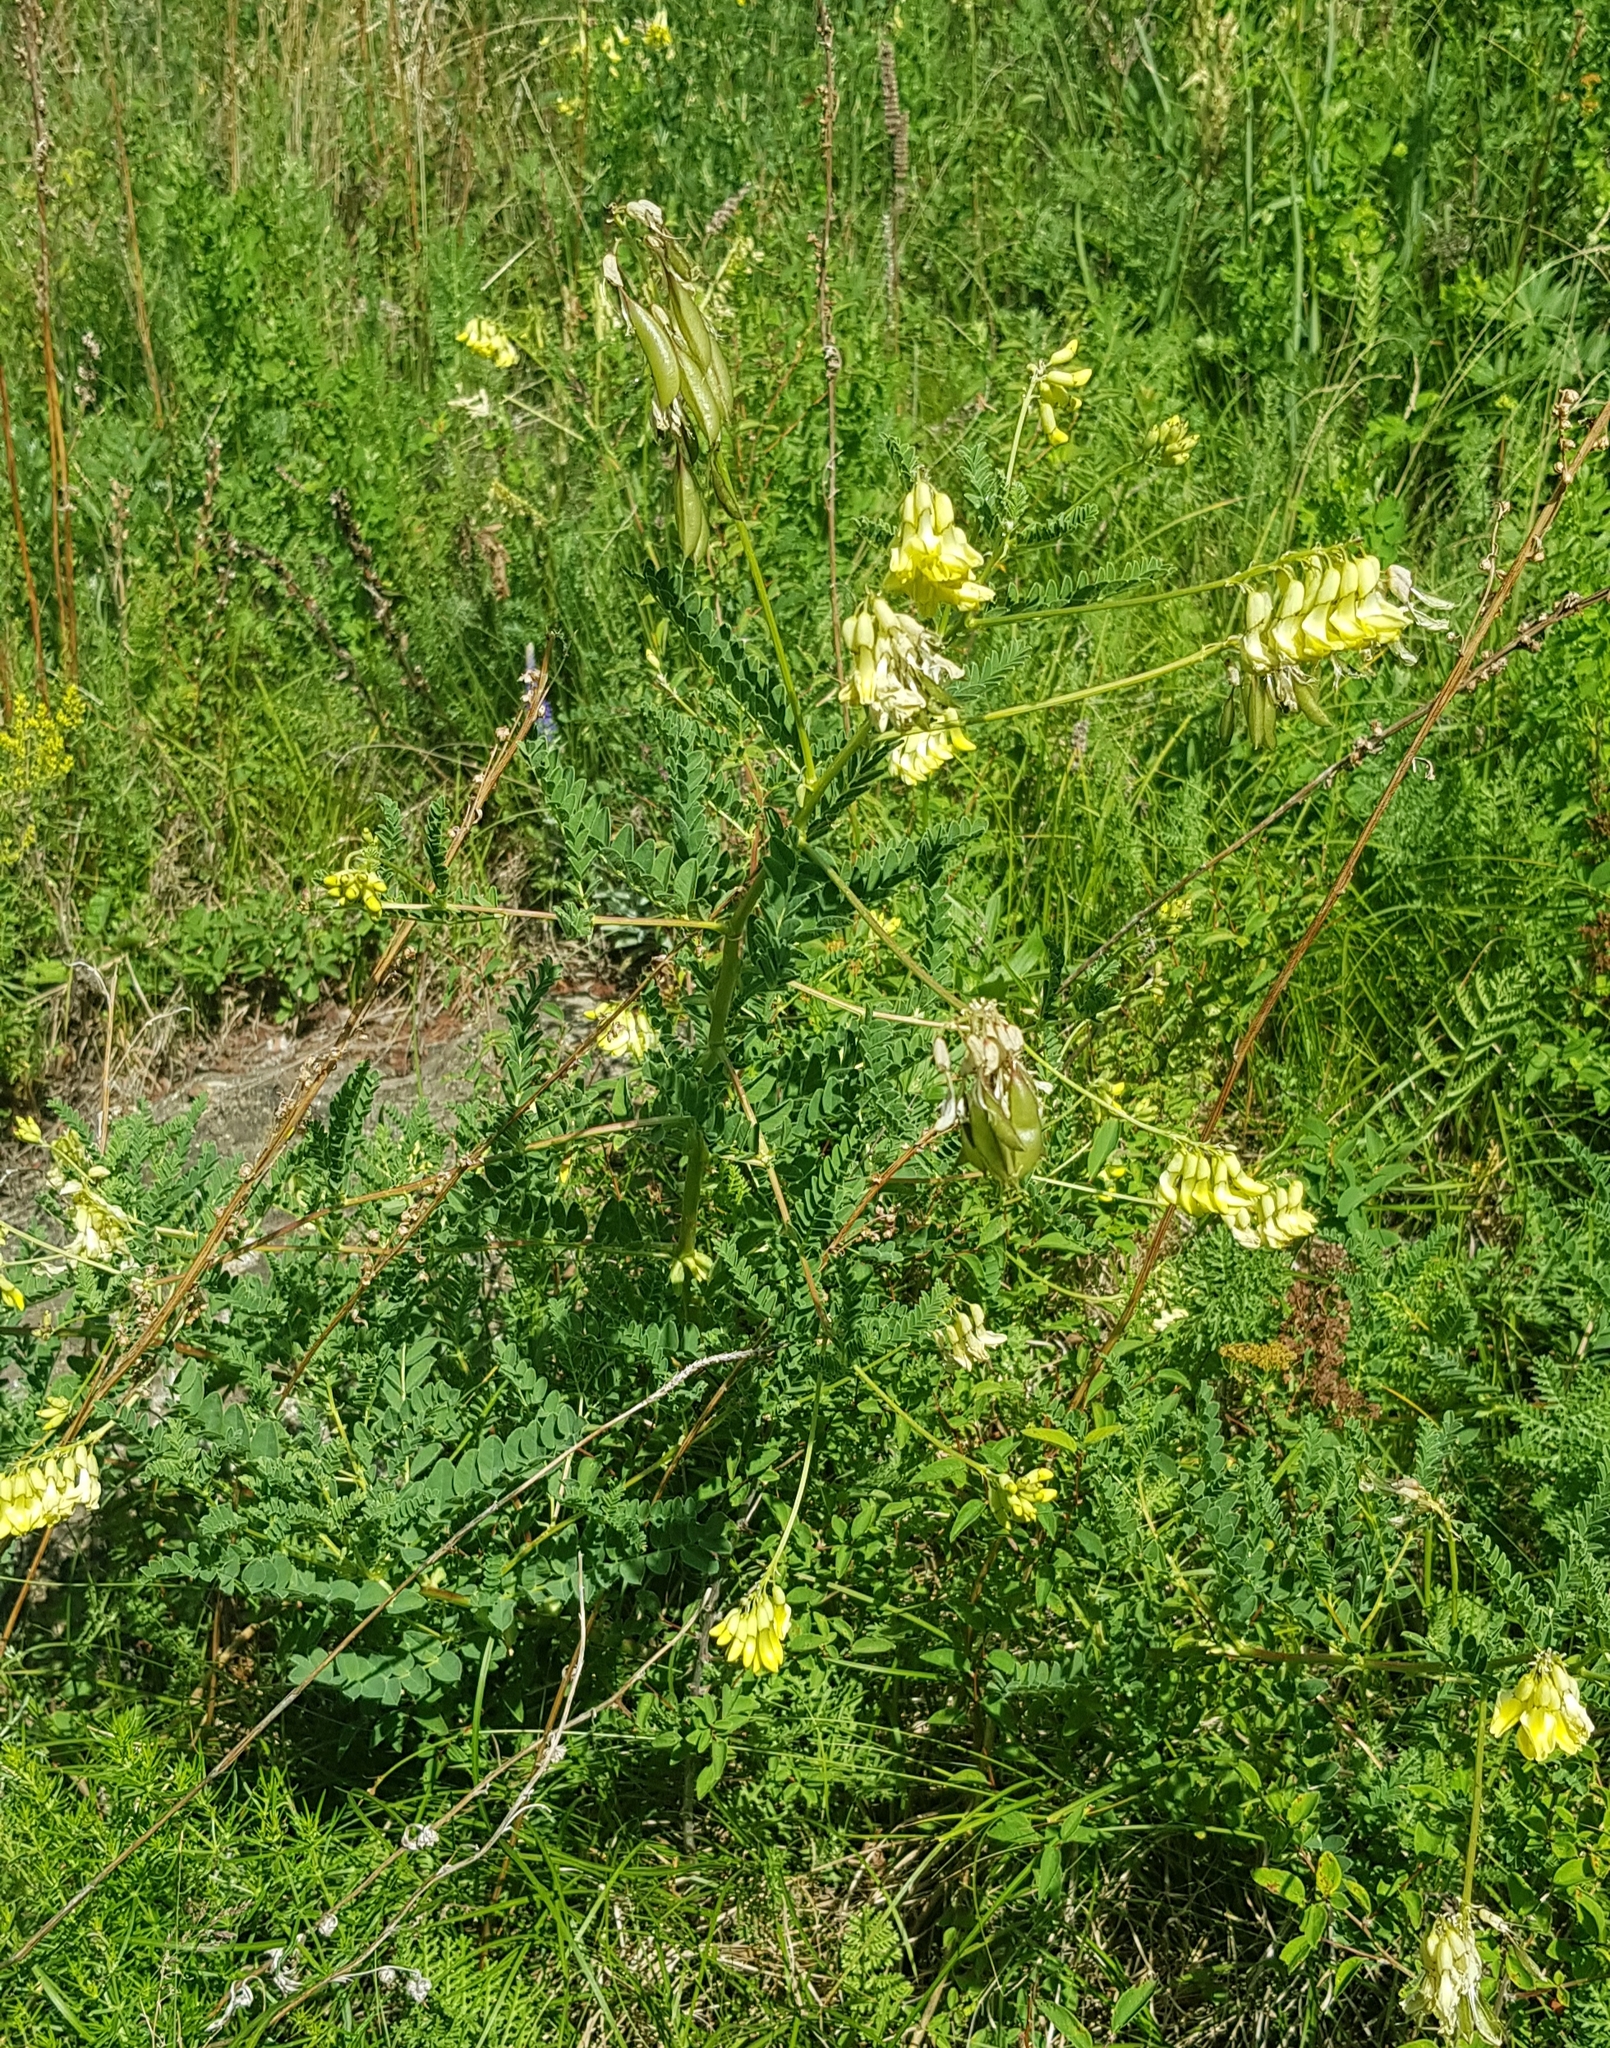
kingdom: Plantae
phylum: Tracheophyta
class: Magnoliopsida
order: Fabales
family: Fabaceae
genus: Astragalus
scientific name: Astragalus
